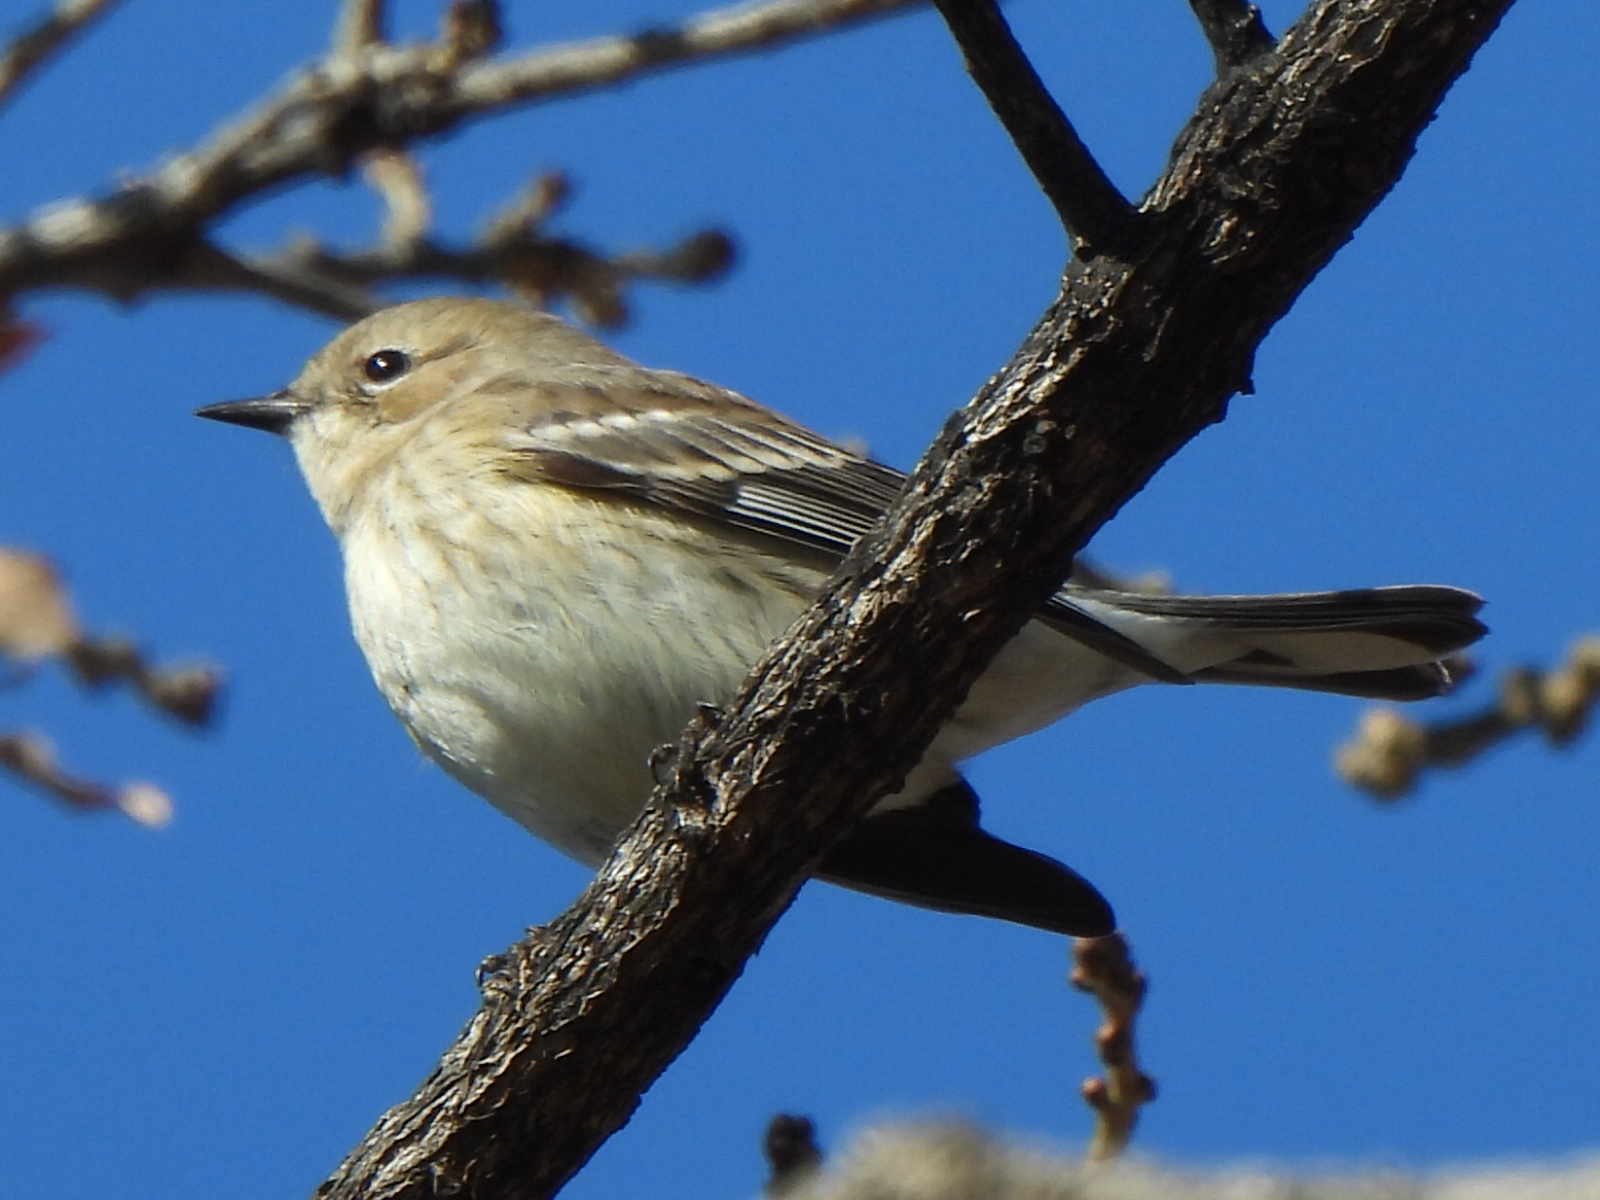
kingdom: Animalia
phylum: Chordata
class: Aves
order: Passeriformes
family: Parulidae
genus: Setophaga
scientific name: Setophaga coronata
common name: Myrtle warbler
